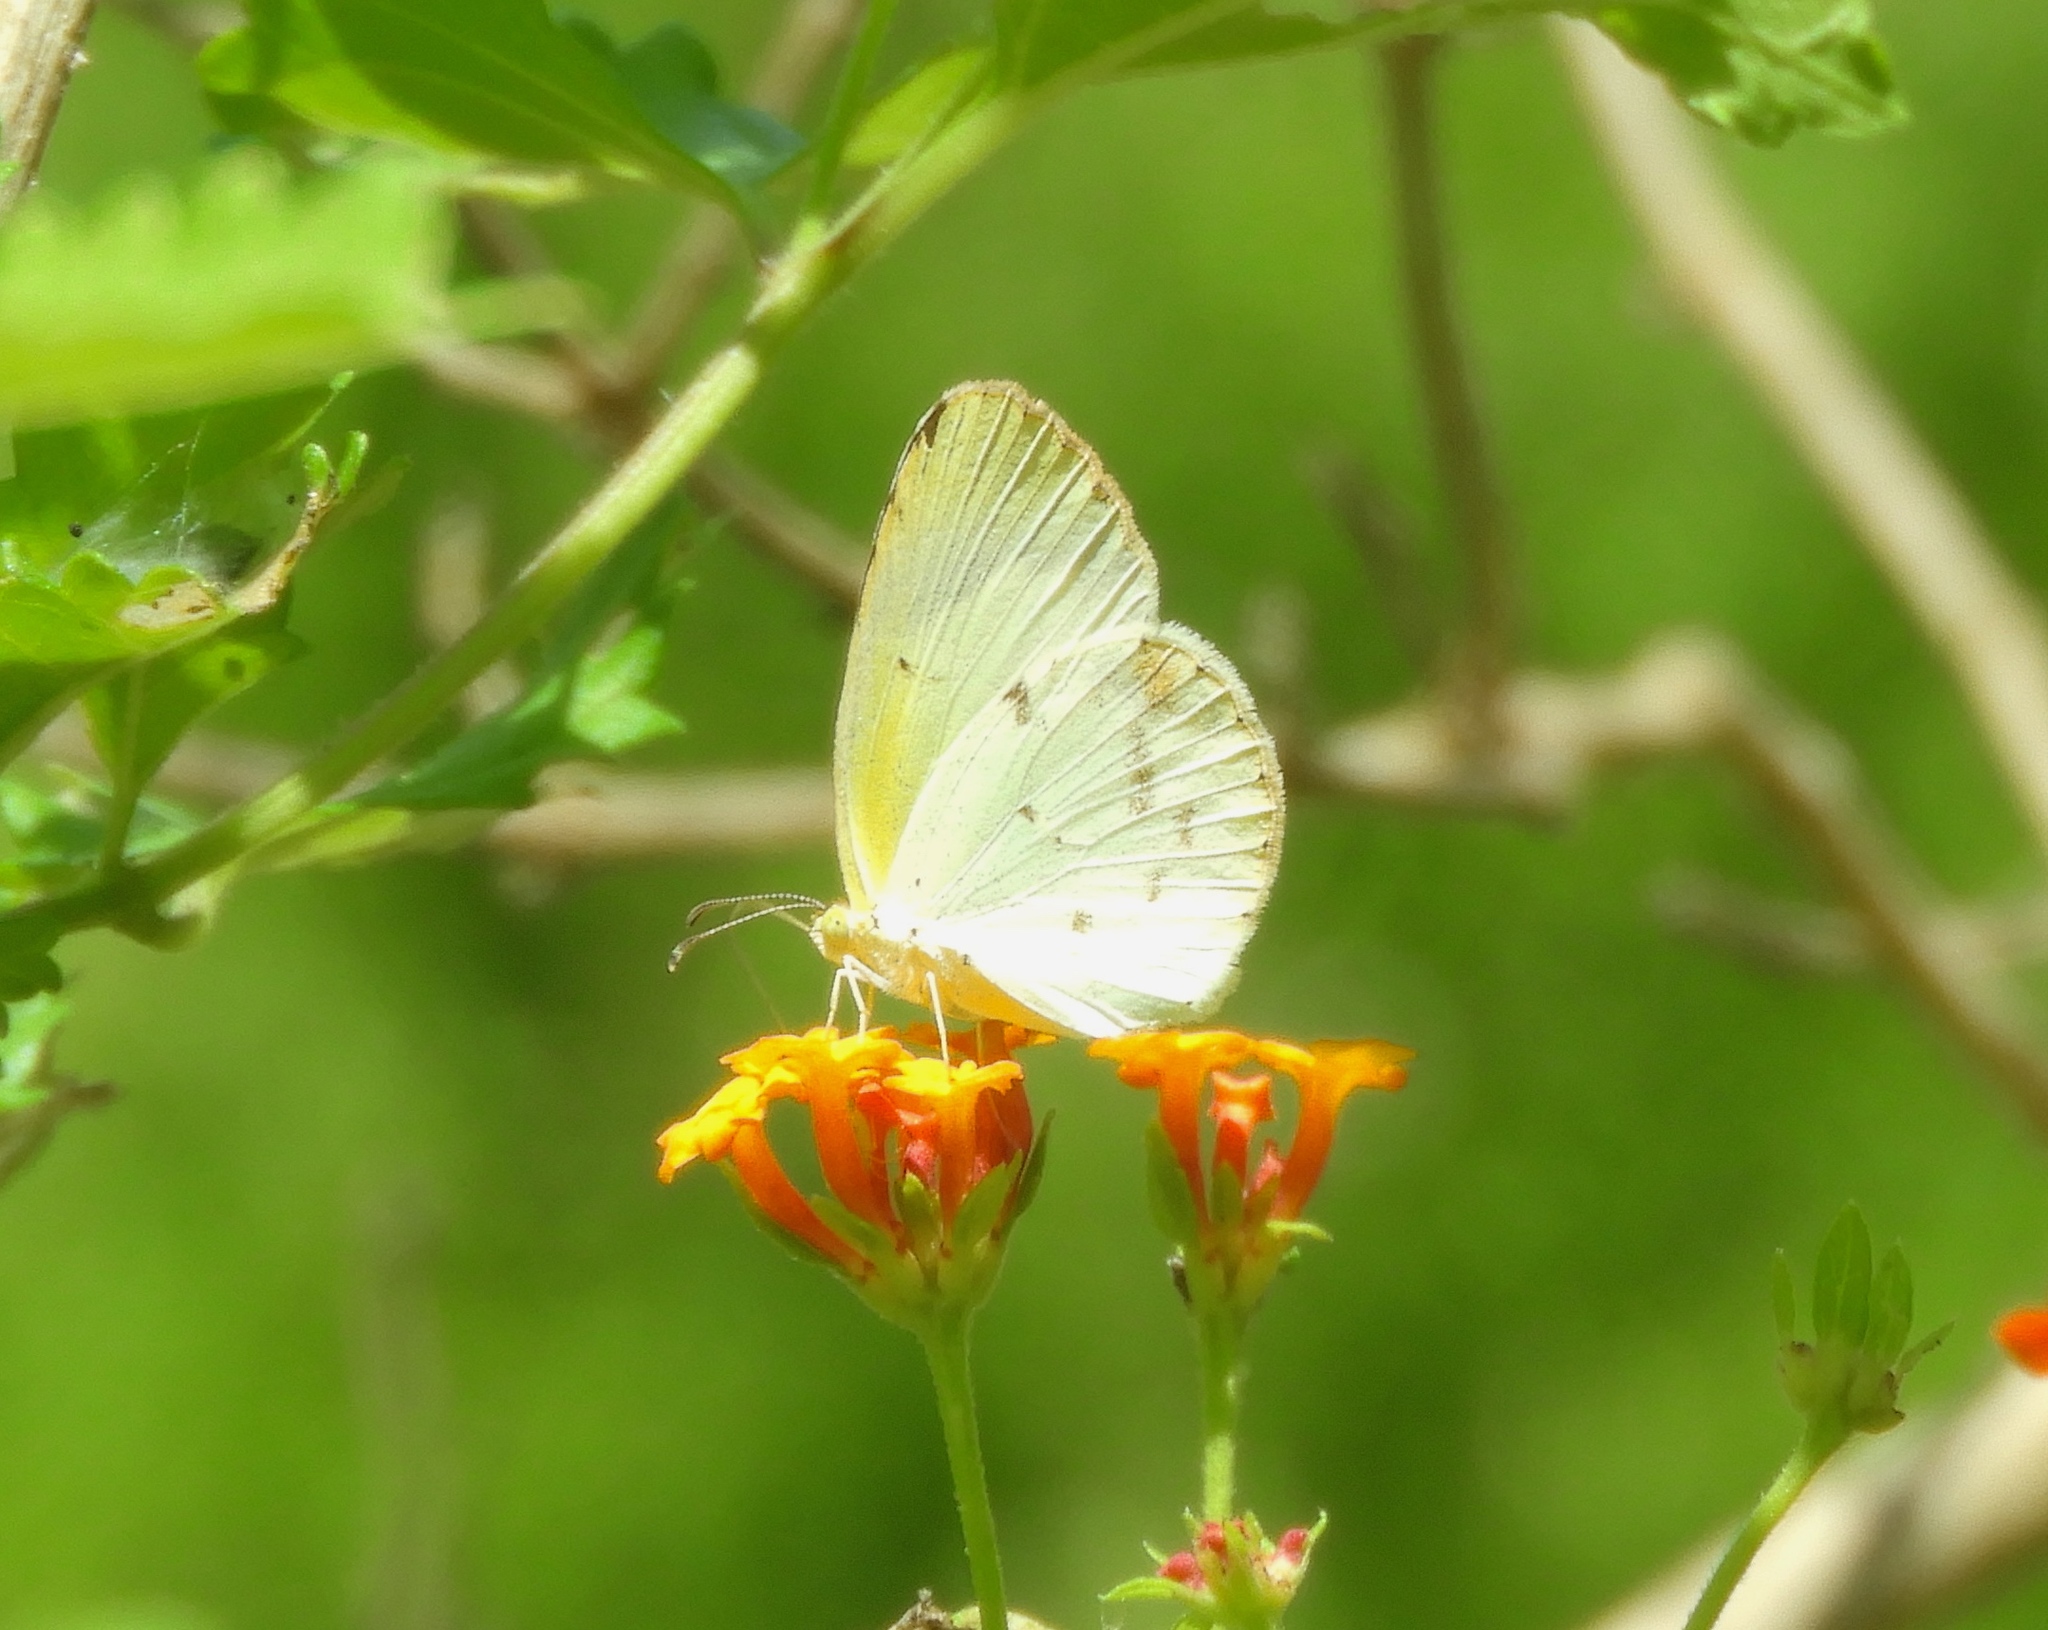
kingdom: Animalia
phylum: Arthropoda
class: Insecta
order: Lepidoptera
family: Pieridae
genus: Pyrisitia
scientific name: Pyrisitia
